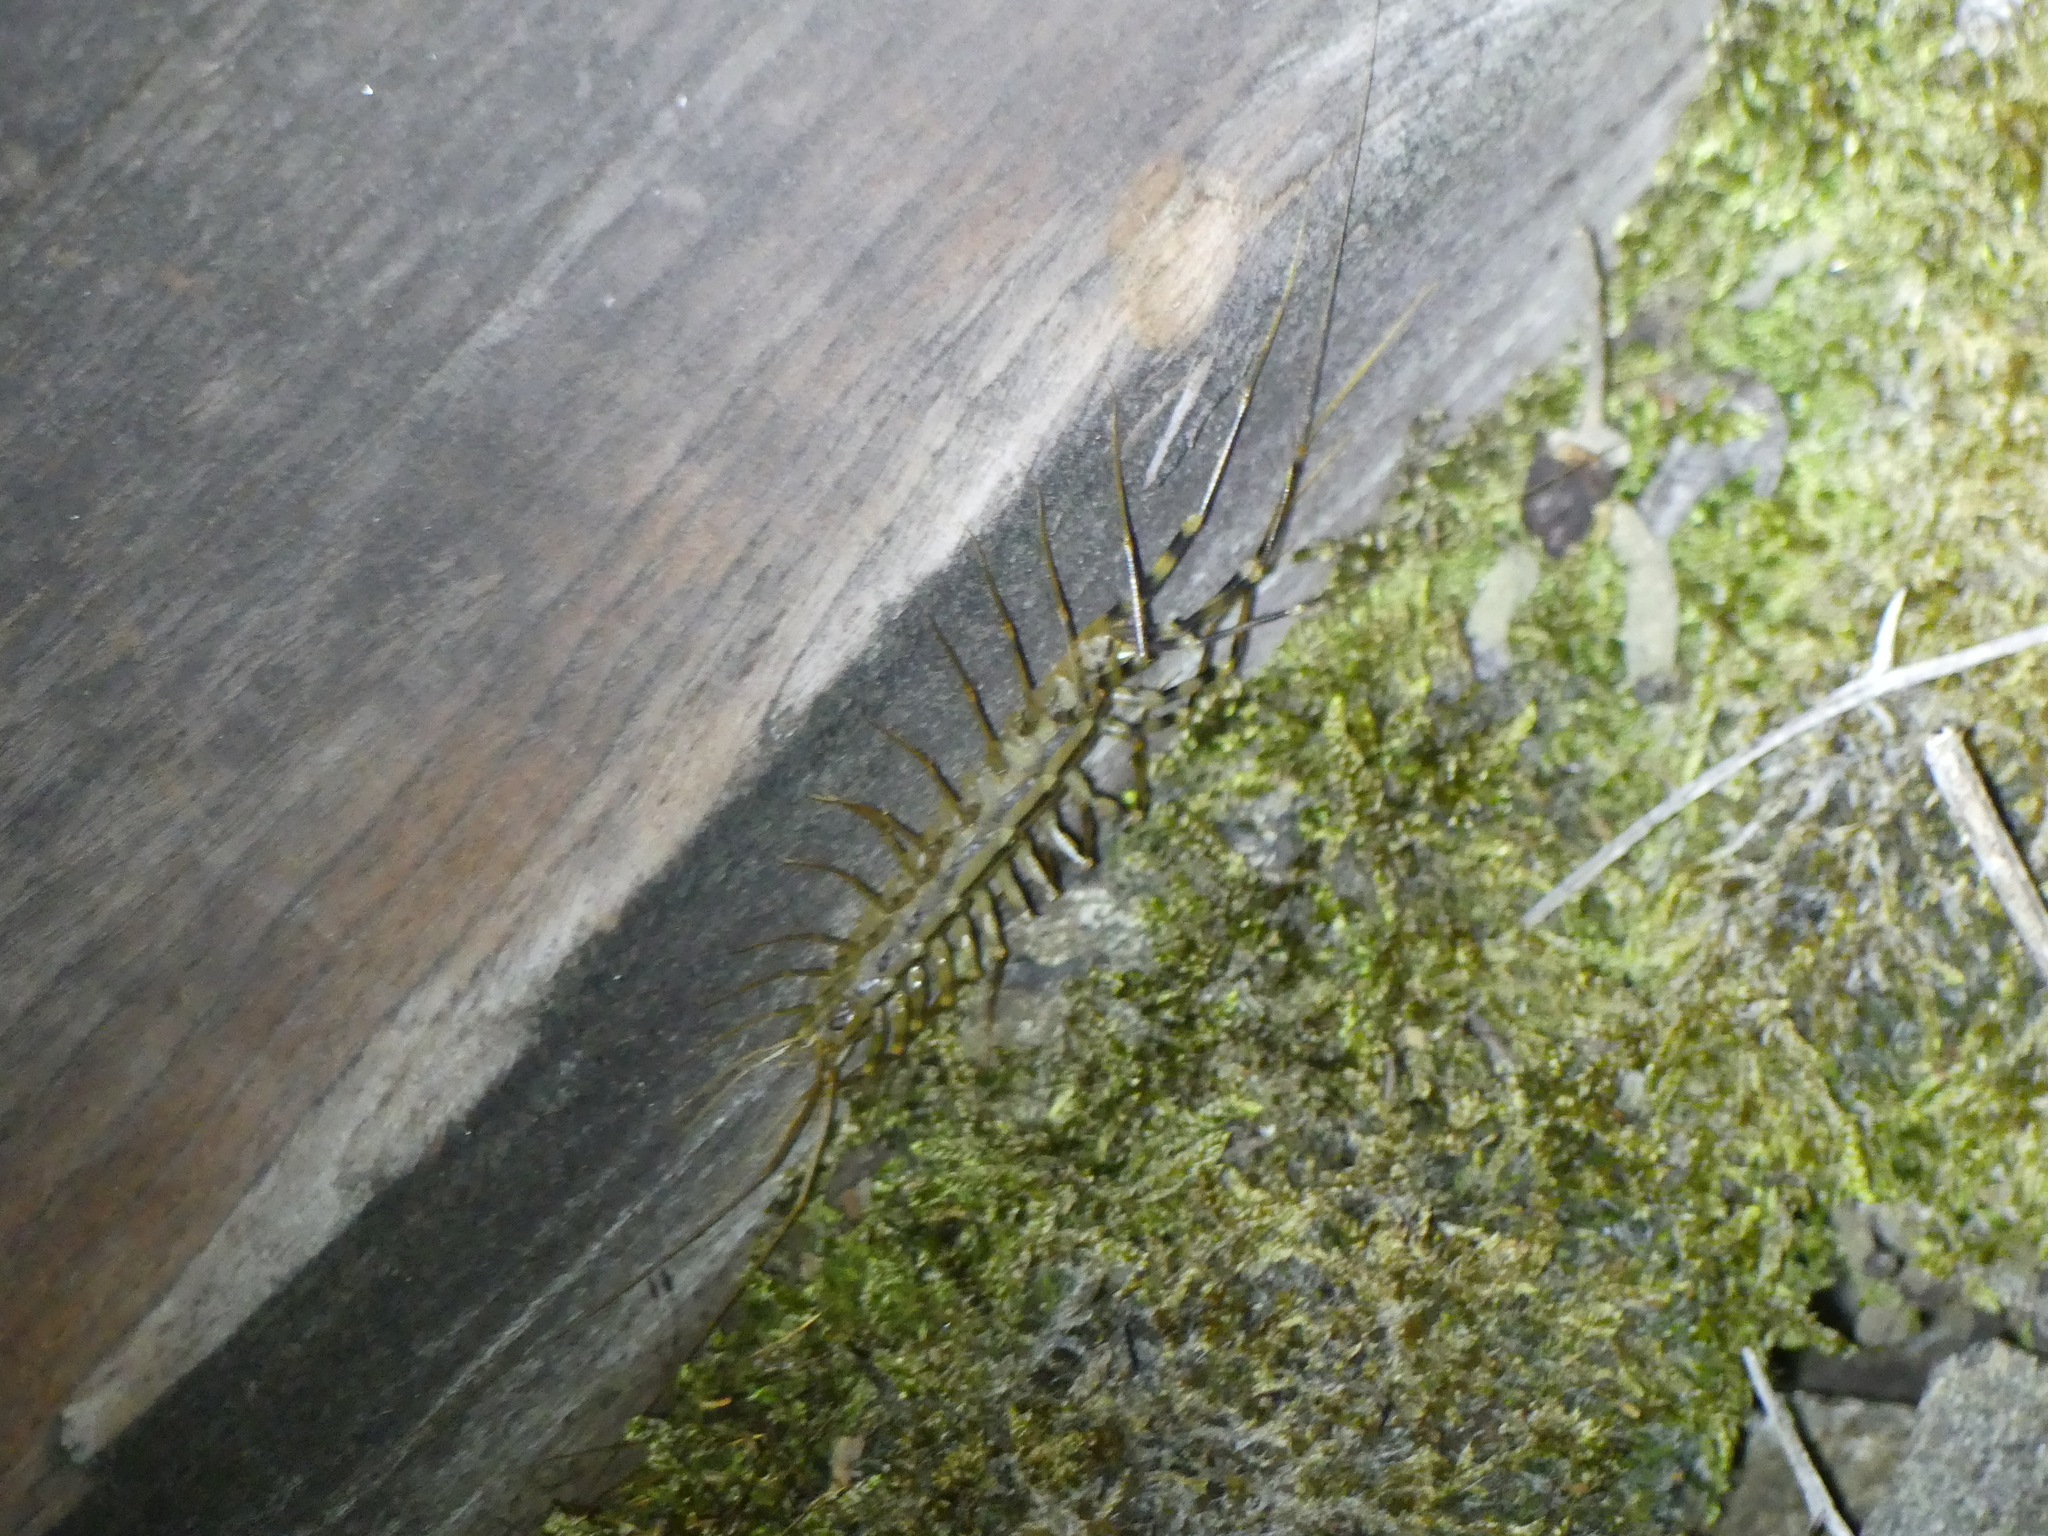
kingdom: Animalia
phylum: Arthropoda
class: Chilopoda
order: Scutigeromorpha
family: Scutigeridae
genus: Scutigera
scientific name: Scutigera coleoptrata
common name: House centipede
